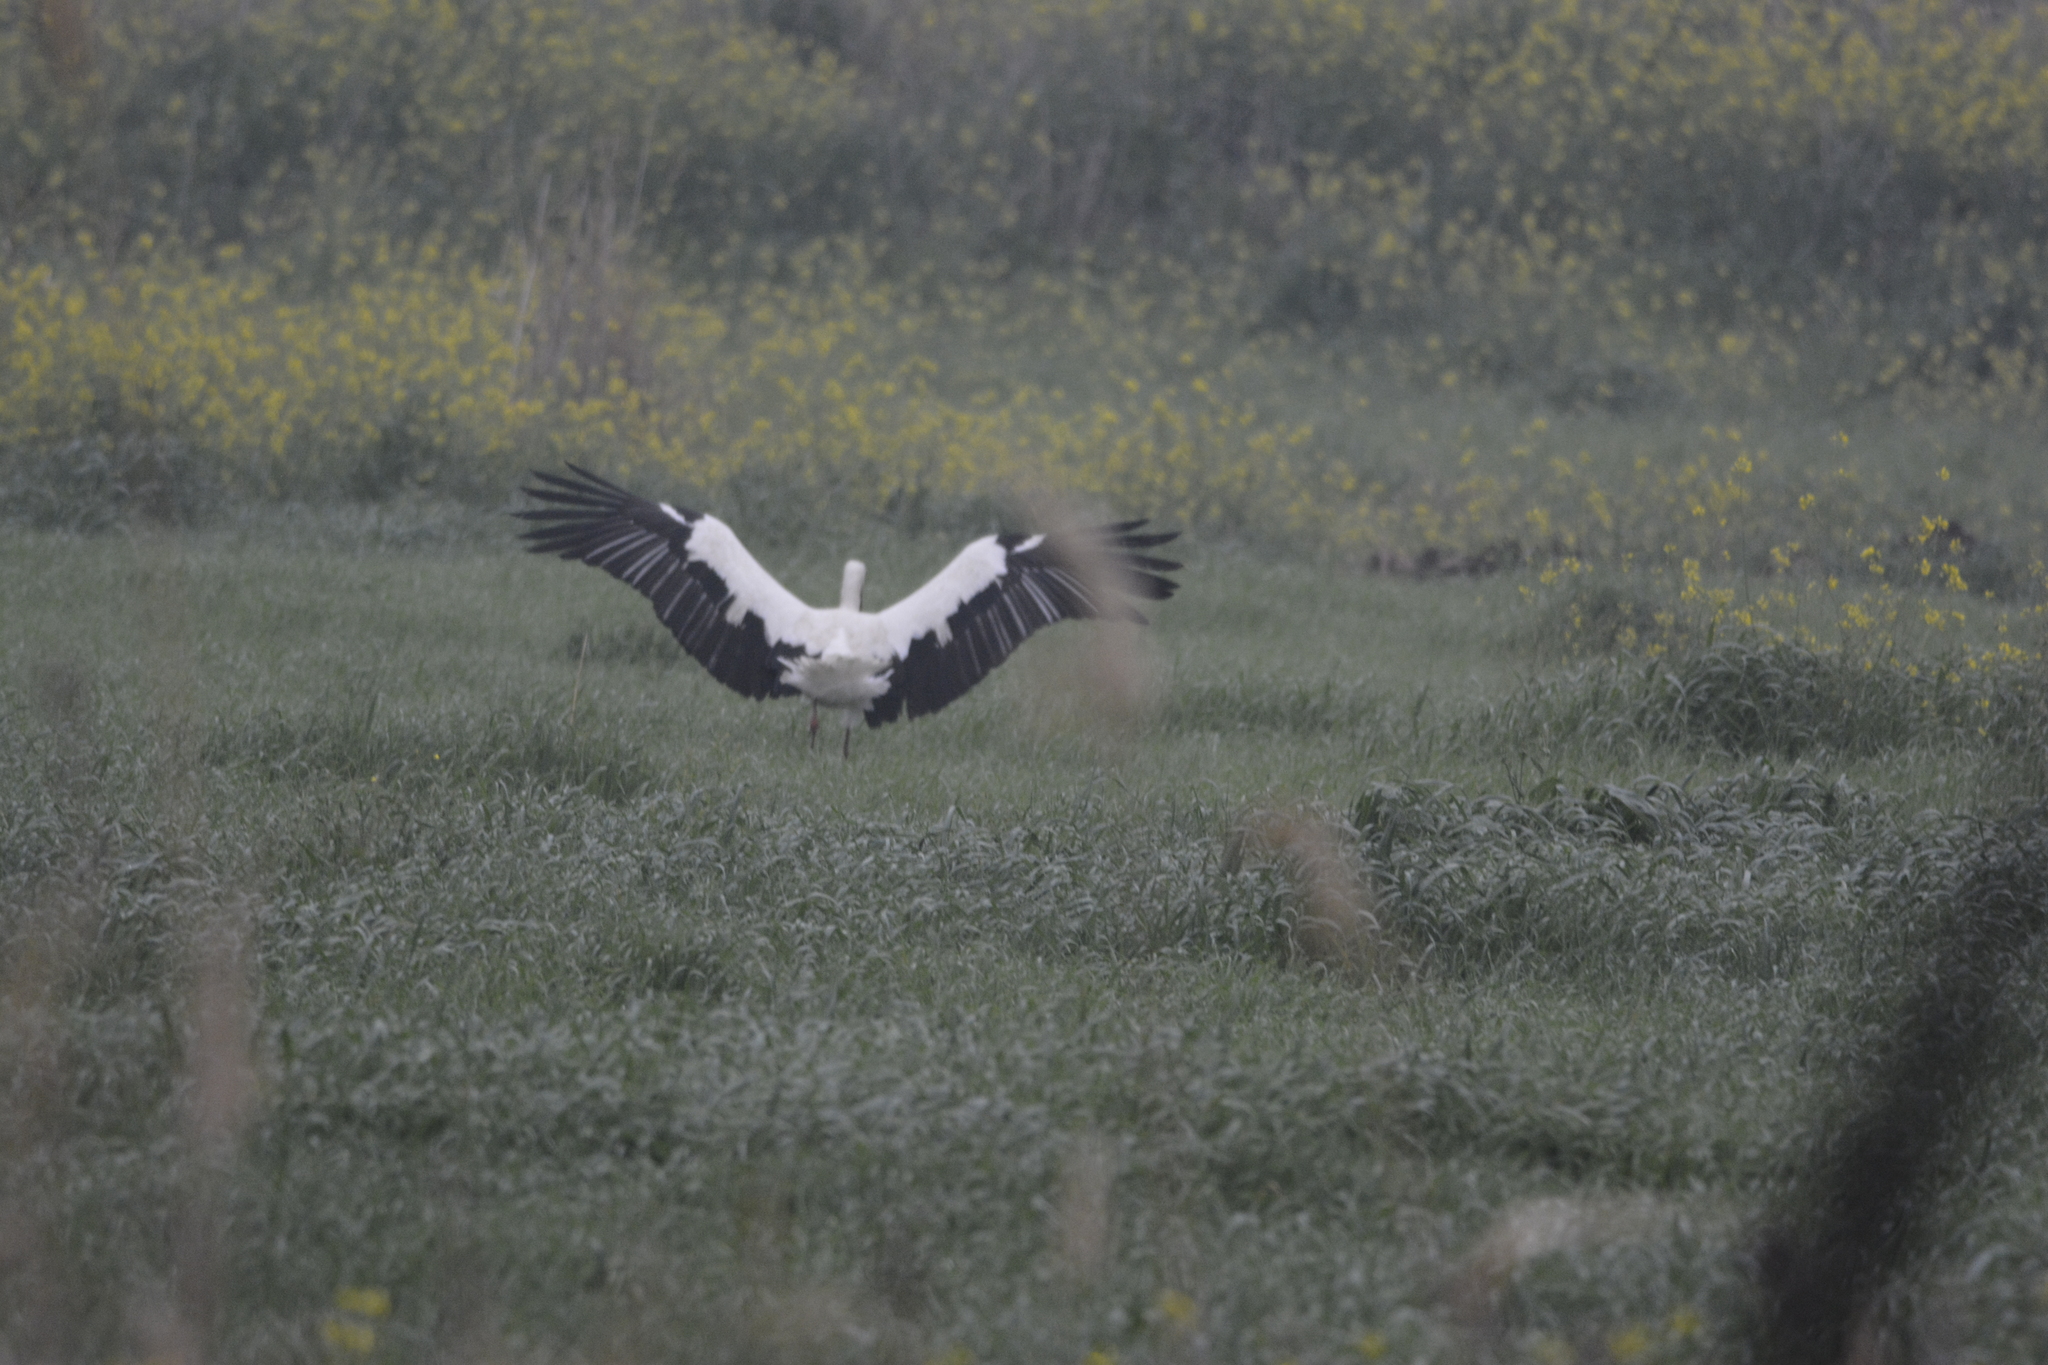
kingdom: Animalia
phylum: Chordata
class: Aves
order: Ciconiiformes
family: Ciconiidae
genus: Ciconia
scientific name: Ciconia ciconia
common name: White stork
